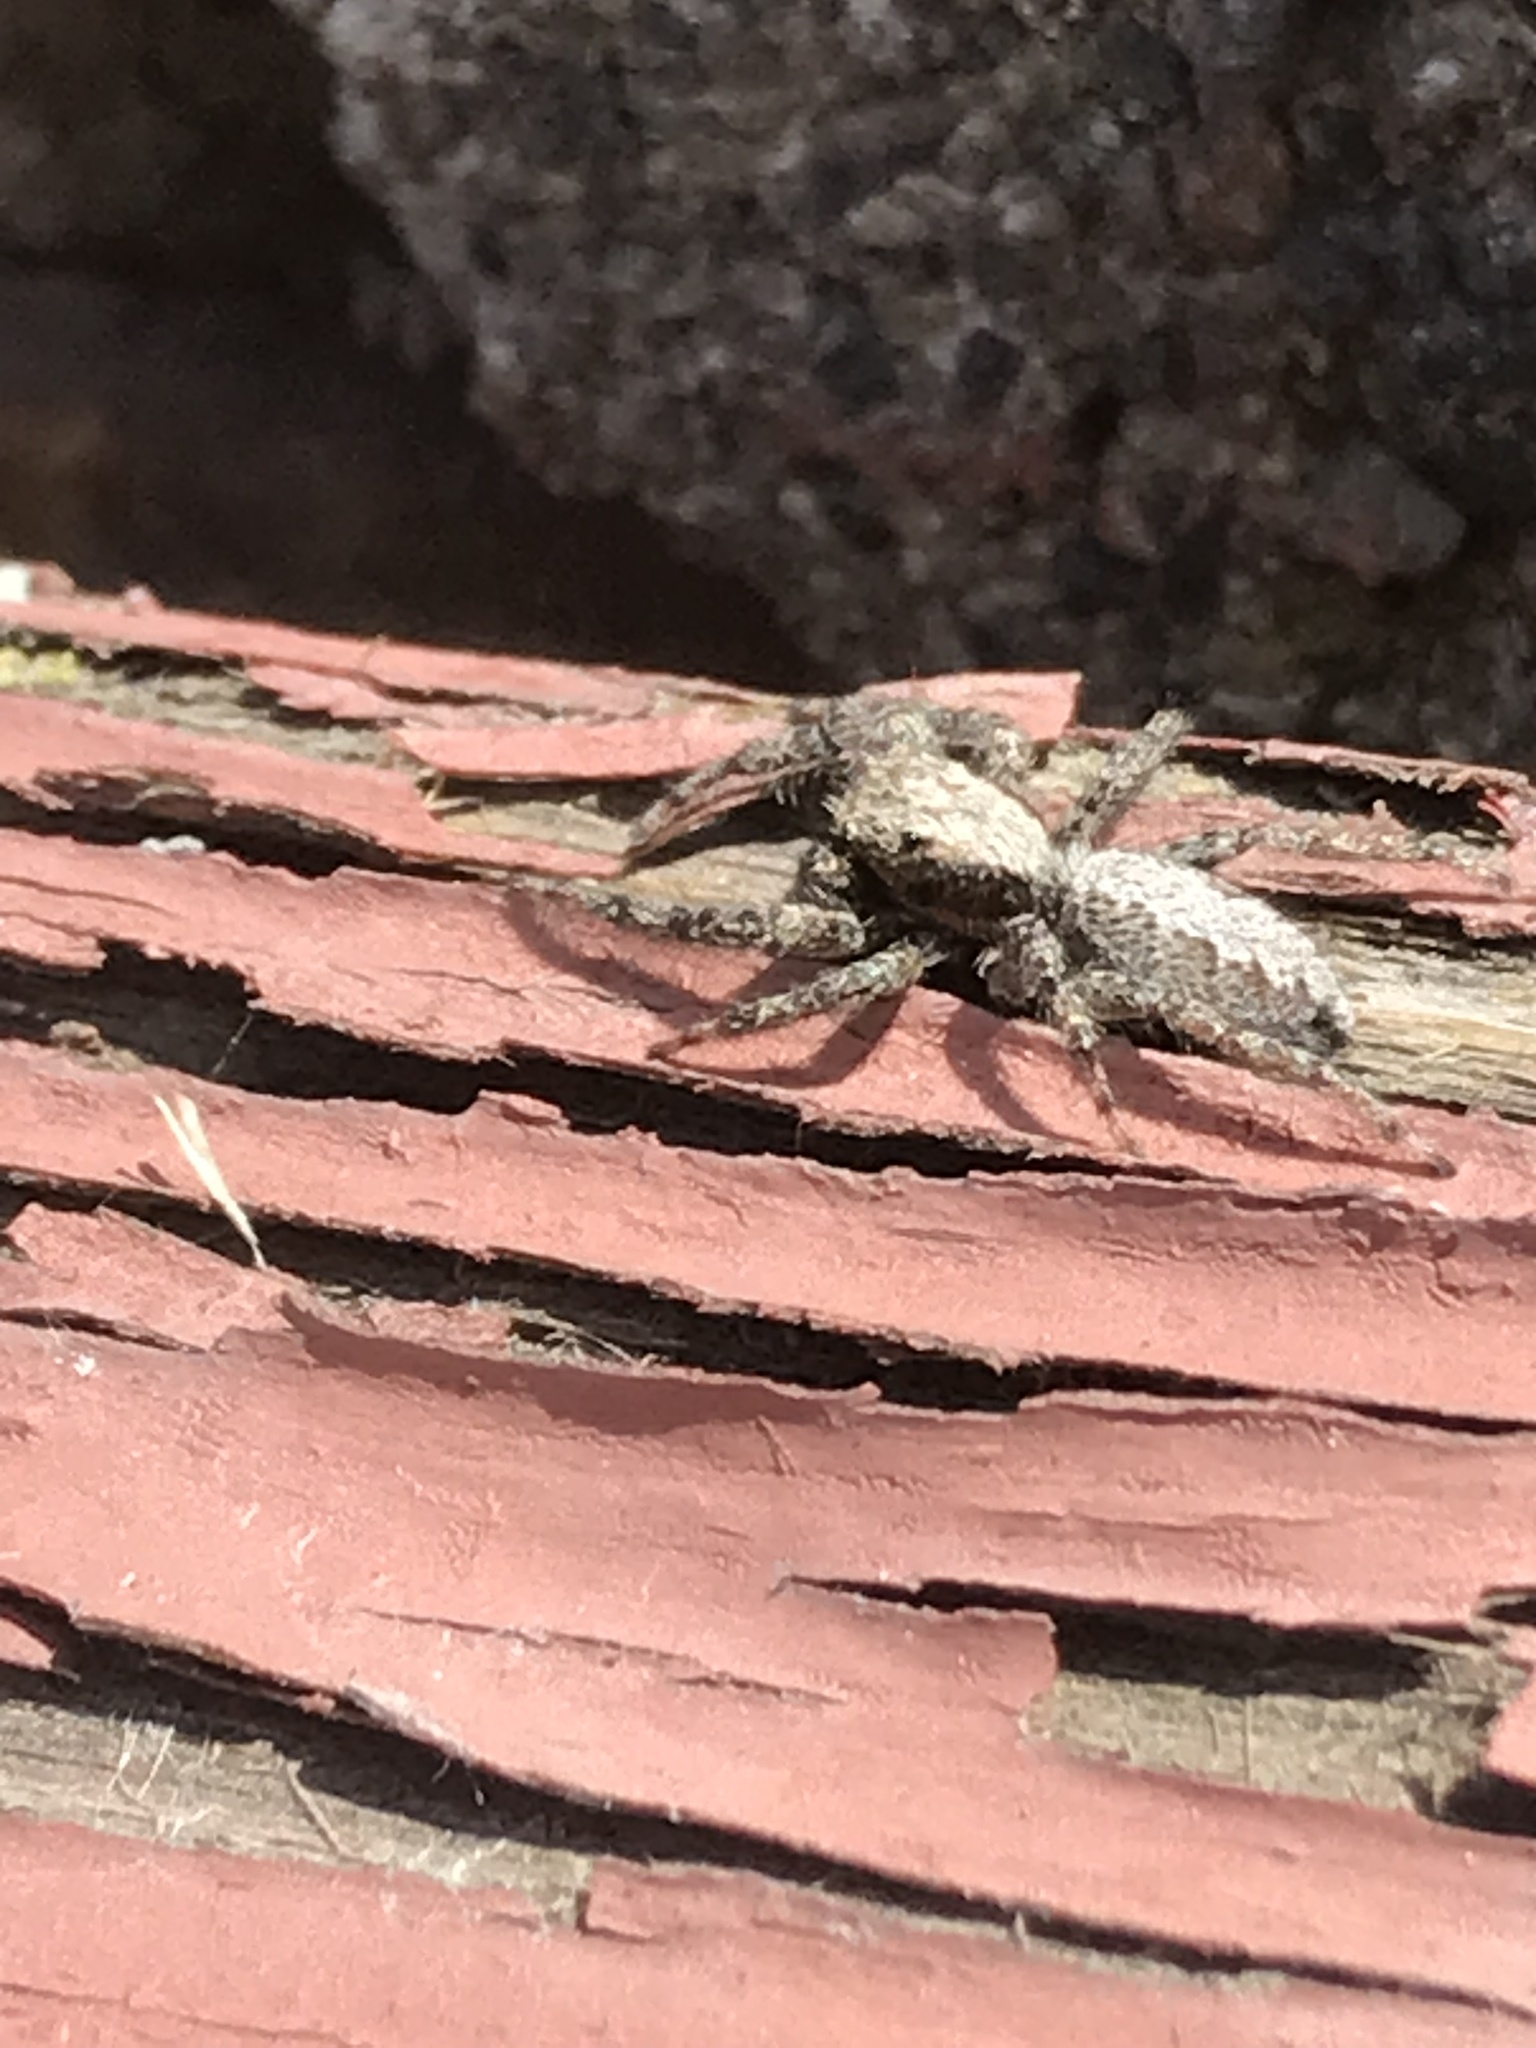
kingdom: Animalia
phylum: Arthropoda
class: Arachnida
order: Araneae
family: Salticidae
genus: Platycryptus
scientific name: Platycryptus californicus
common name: Jumping spiders
